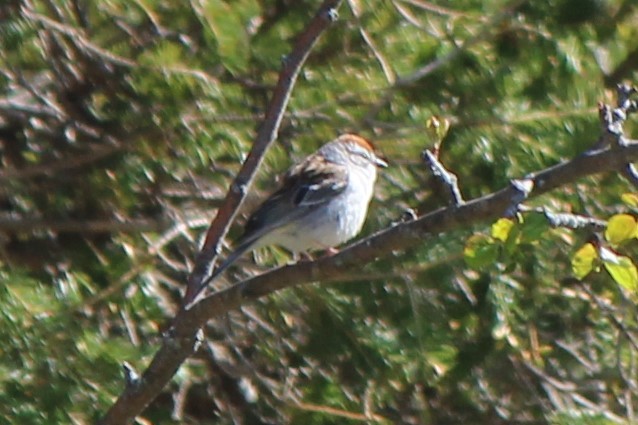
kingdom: Animalia
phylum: Chordata
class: Aves
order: Passeriformes
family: Passerellidae
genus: Spizella
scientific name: Spizella passerina
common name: Chipping sparrow
